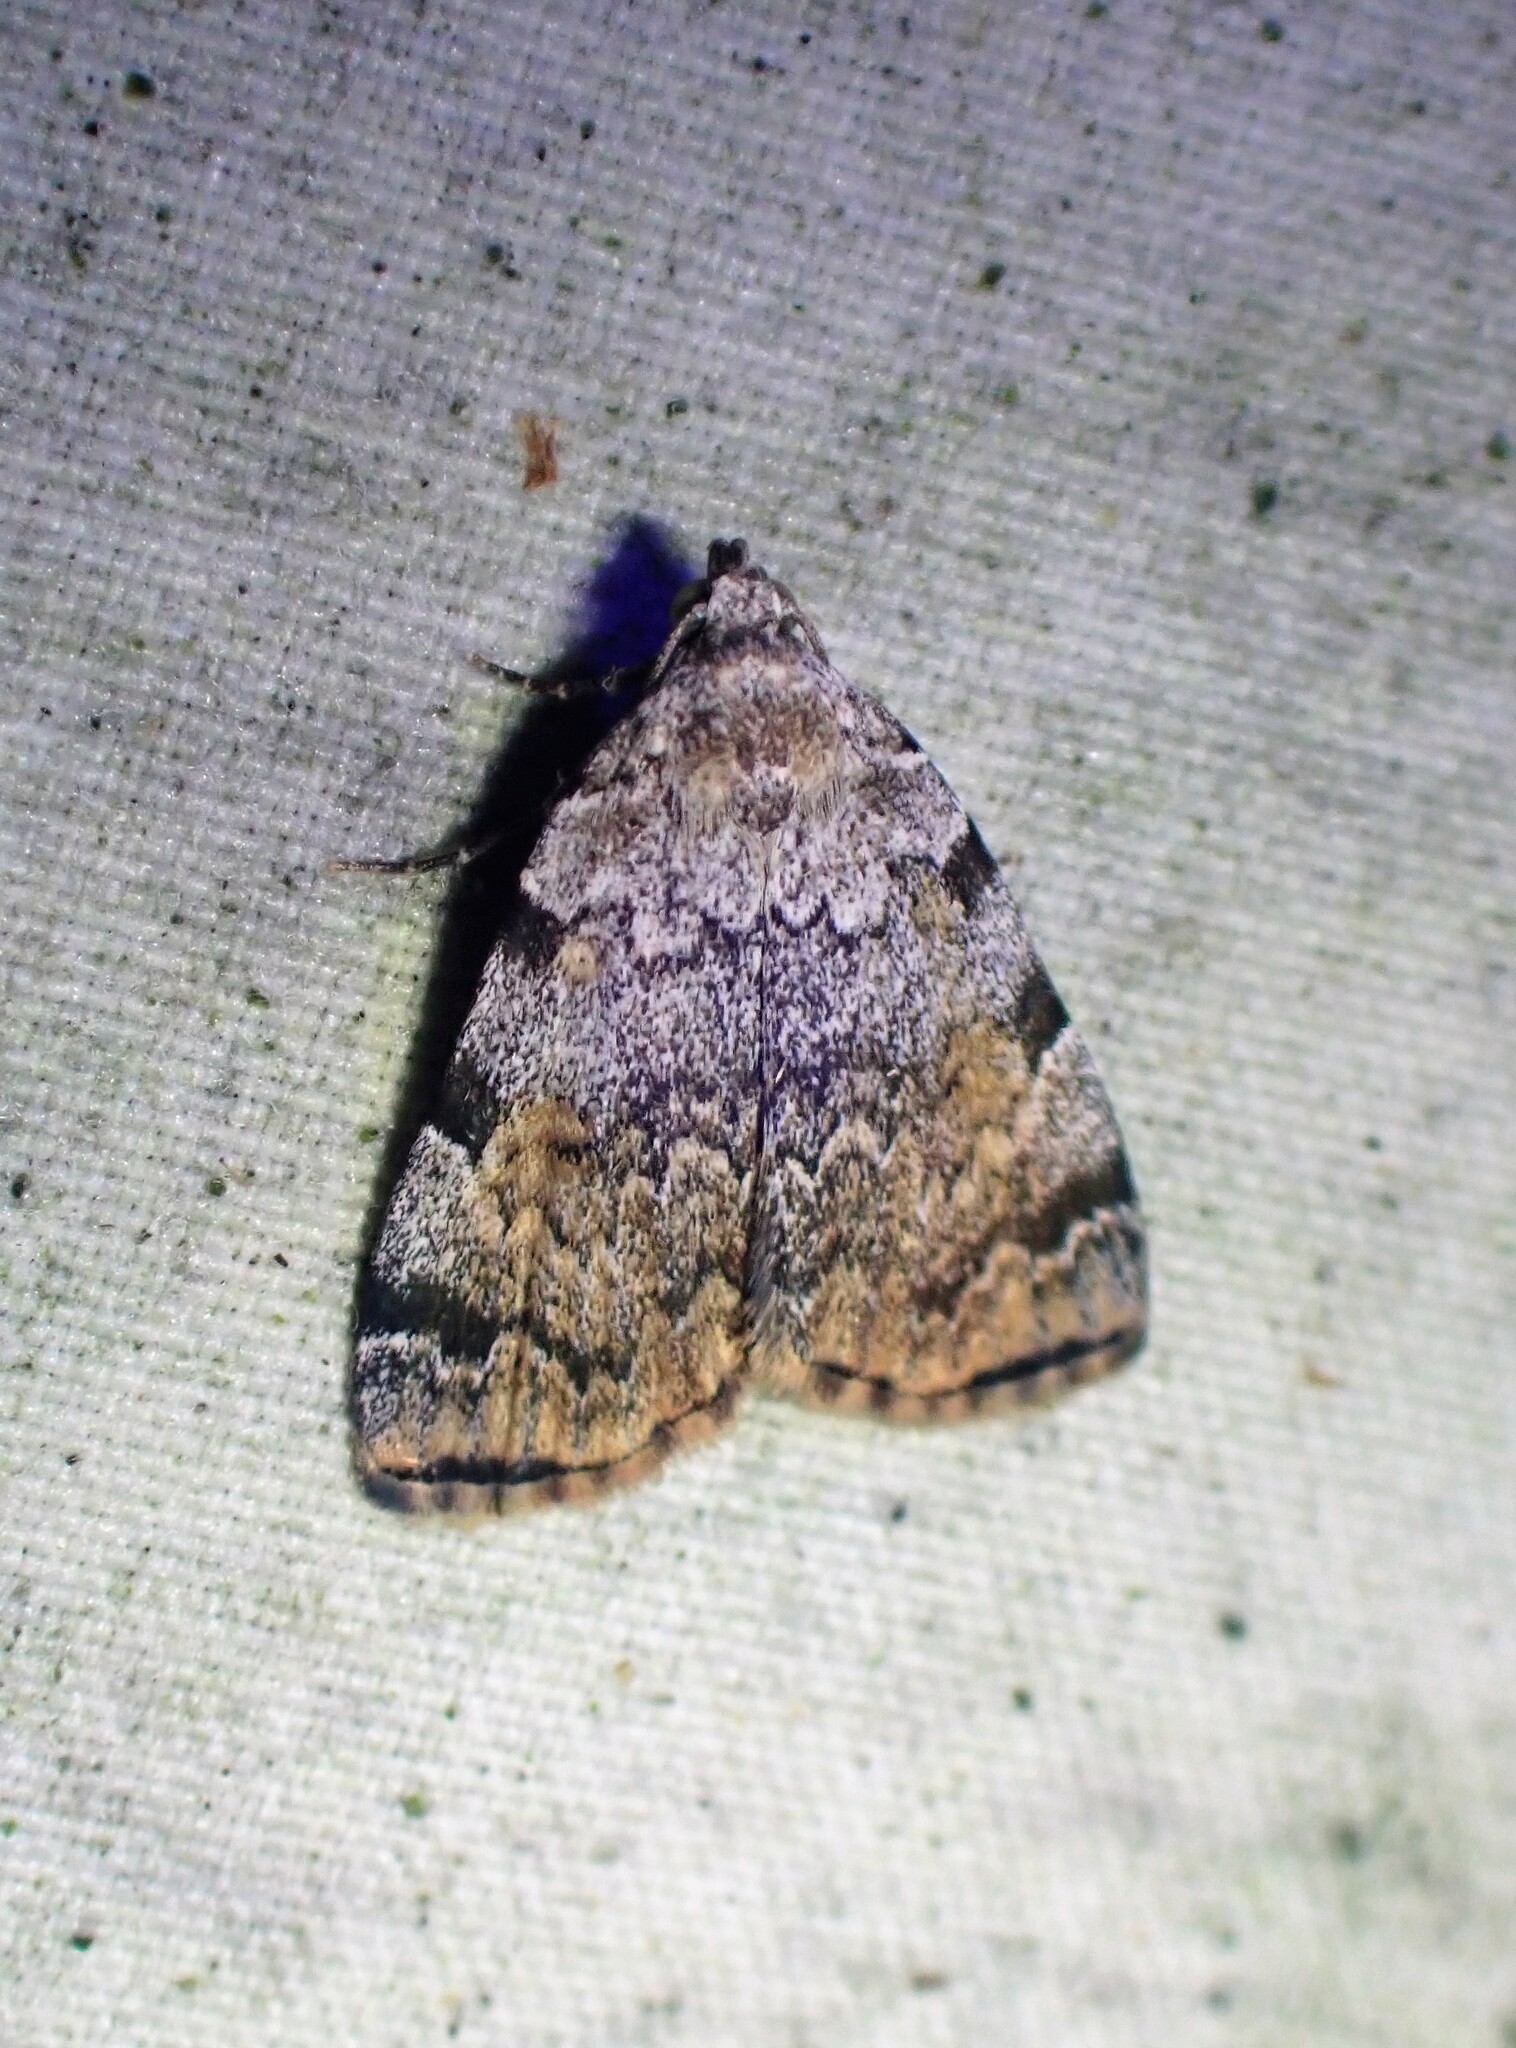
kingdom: Animalia
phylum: Arthropoda
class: Insecta
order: Lepidoptera
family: Erebidae
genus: Idia
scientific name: Idia americalis
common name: American idia moth
